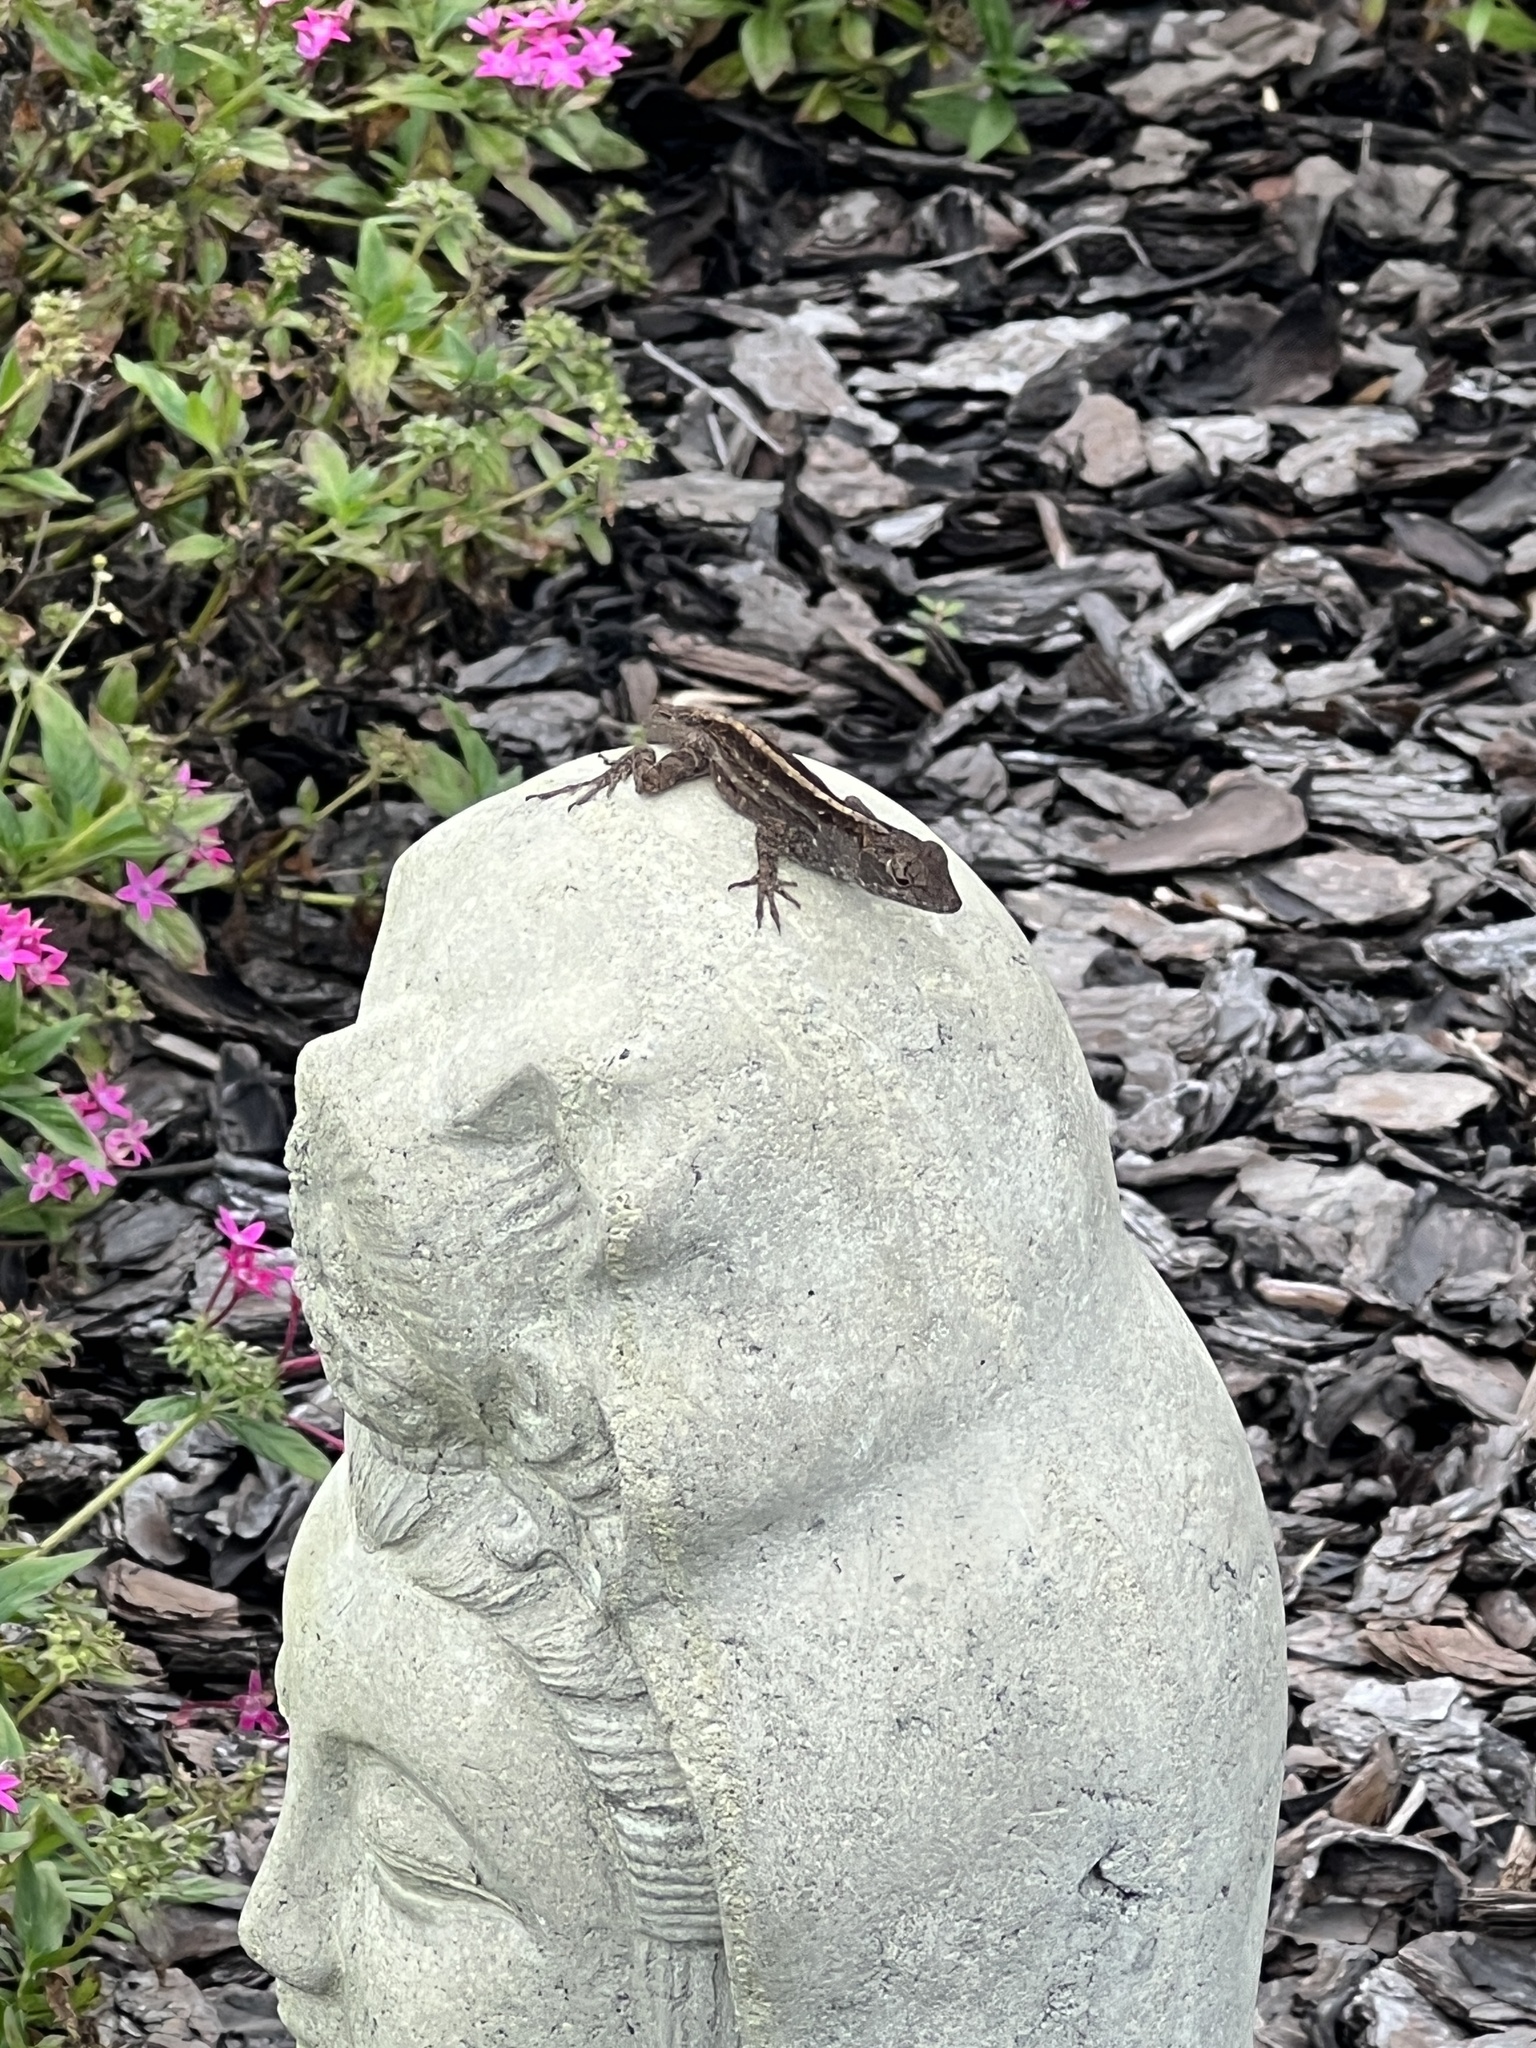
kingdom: Animalia
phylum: Chordata
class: Squamata
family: Dactyloidae
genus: Anolis
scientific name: Anolis sagrei
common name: Brown anole
